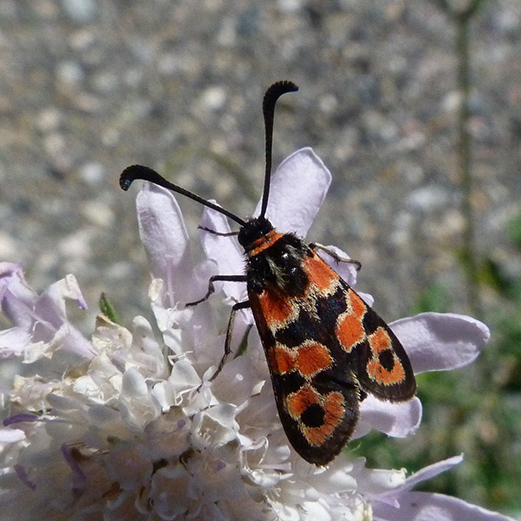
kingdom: Animalia
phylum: Arthropoda
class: Insecta
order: Lepidoptera
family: Zygaenidae
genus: Zygaena
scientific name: Zygaena fausta
